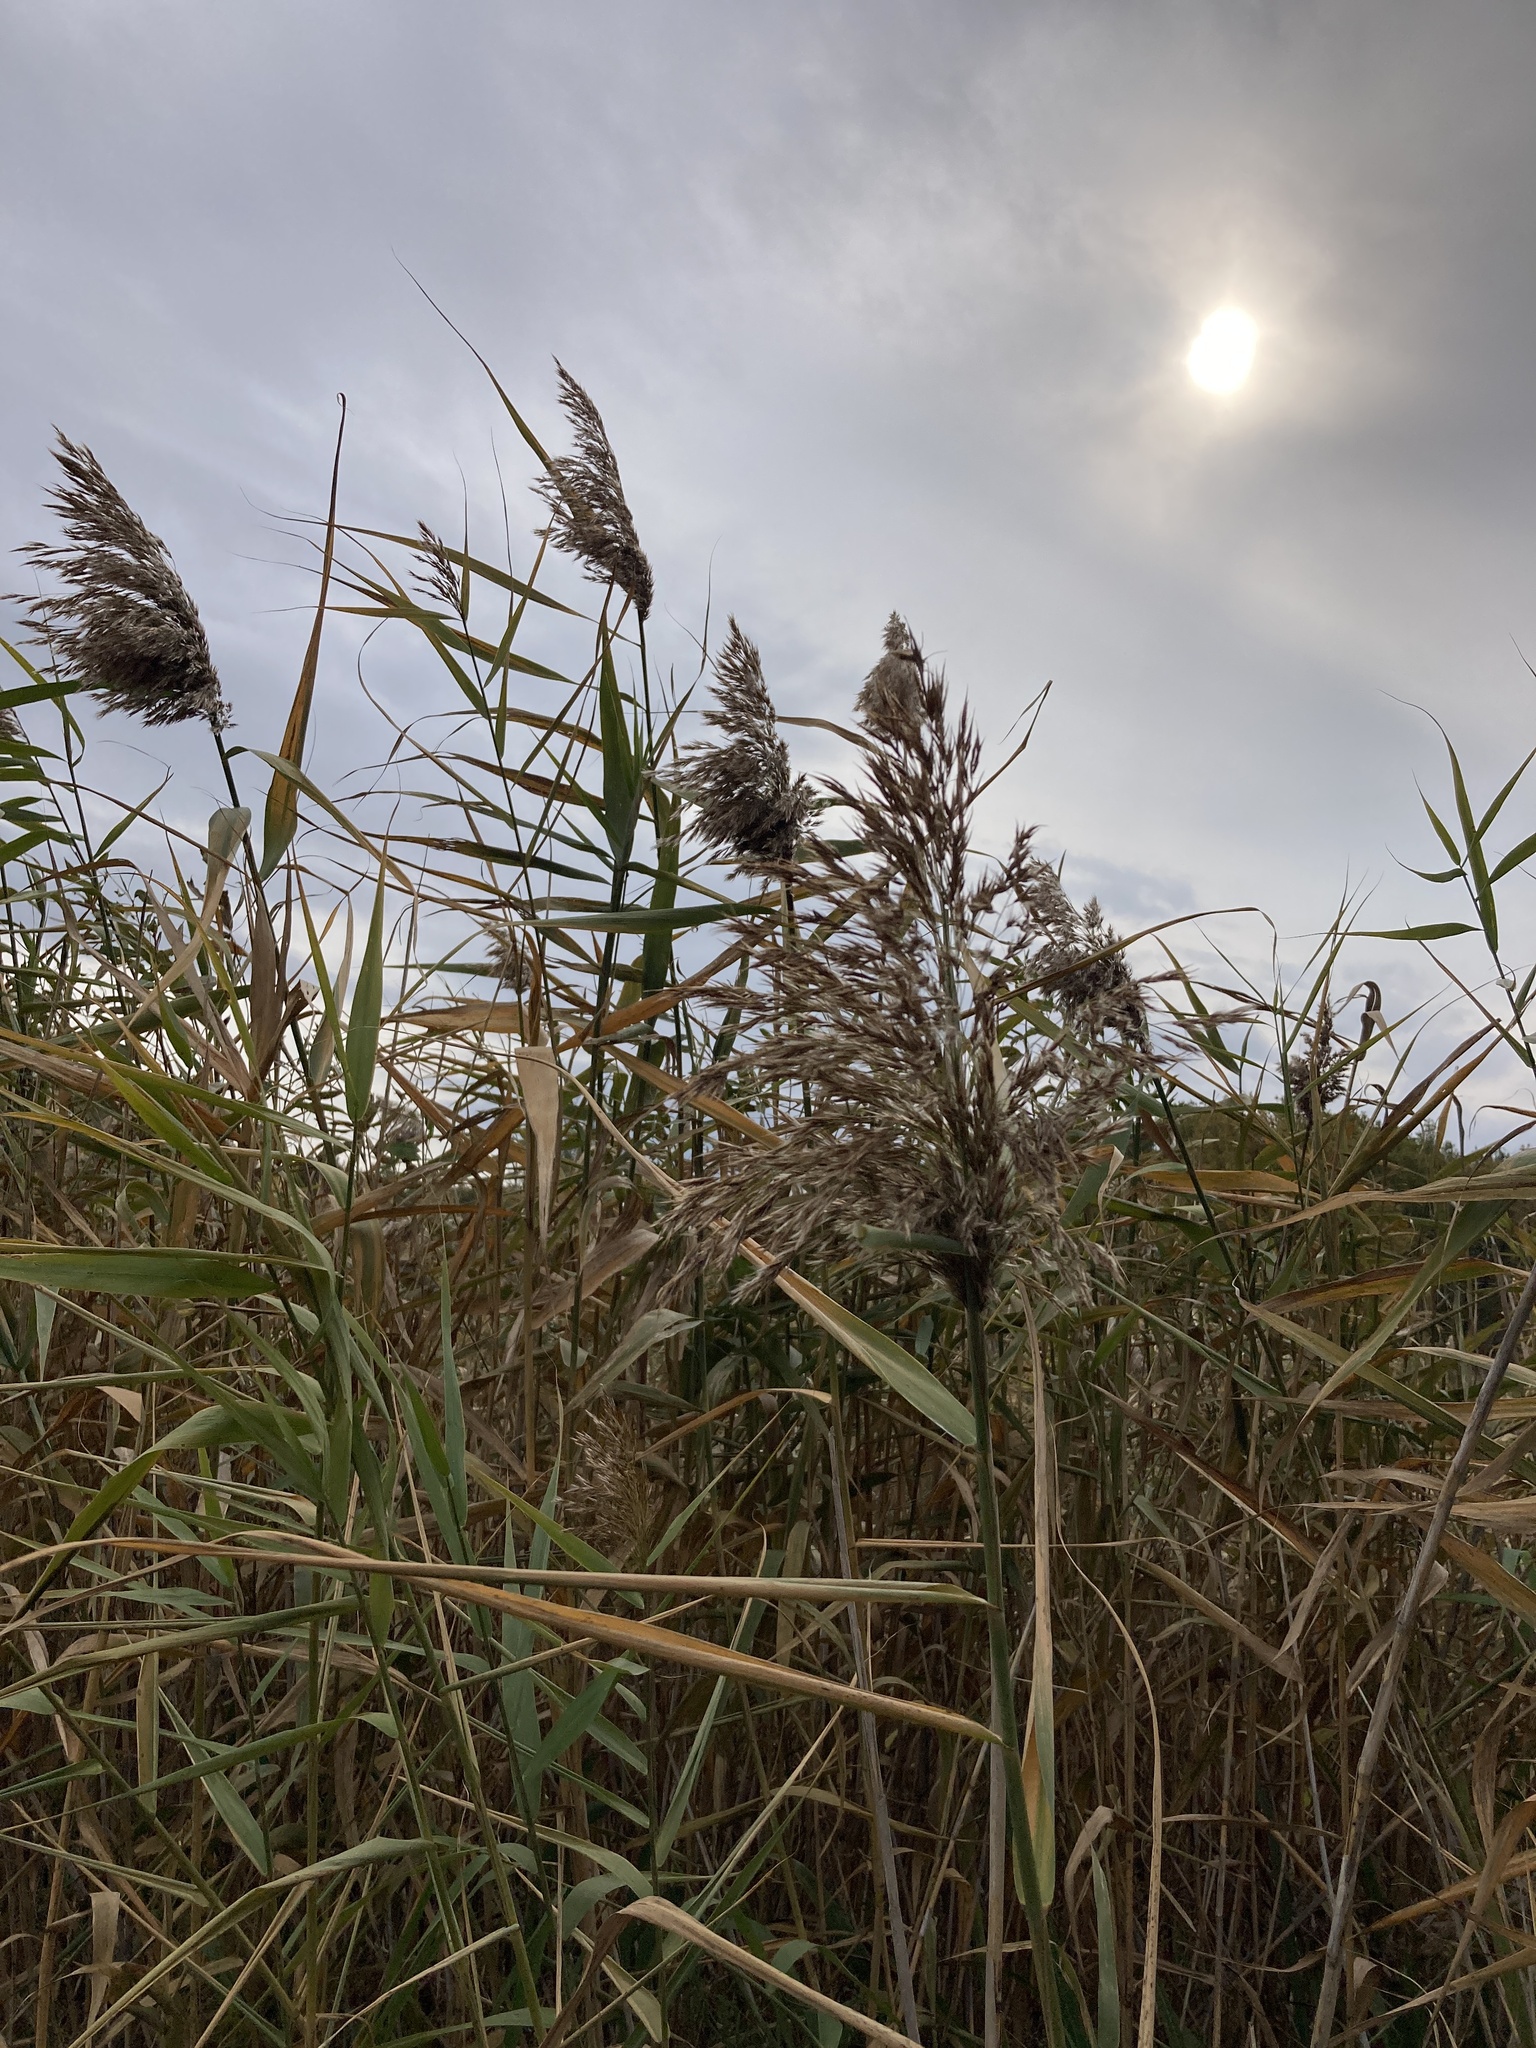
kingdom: Plantae
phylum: Tracheophyta
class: Liliopsida
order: Poales
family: Poaceae
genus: Phragmites
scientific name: Phragmites australis
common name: Common reed
